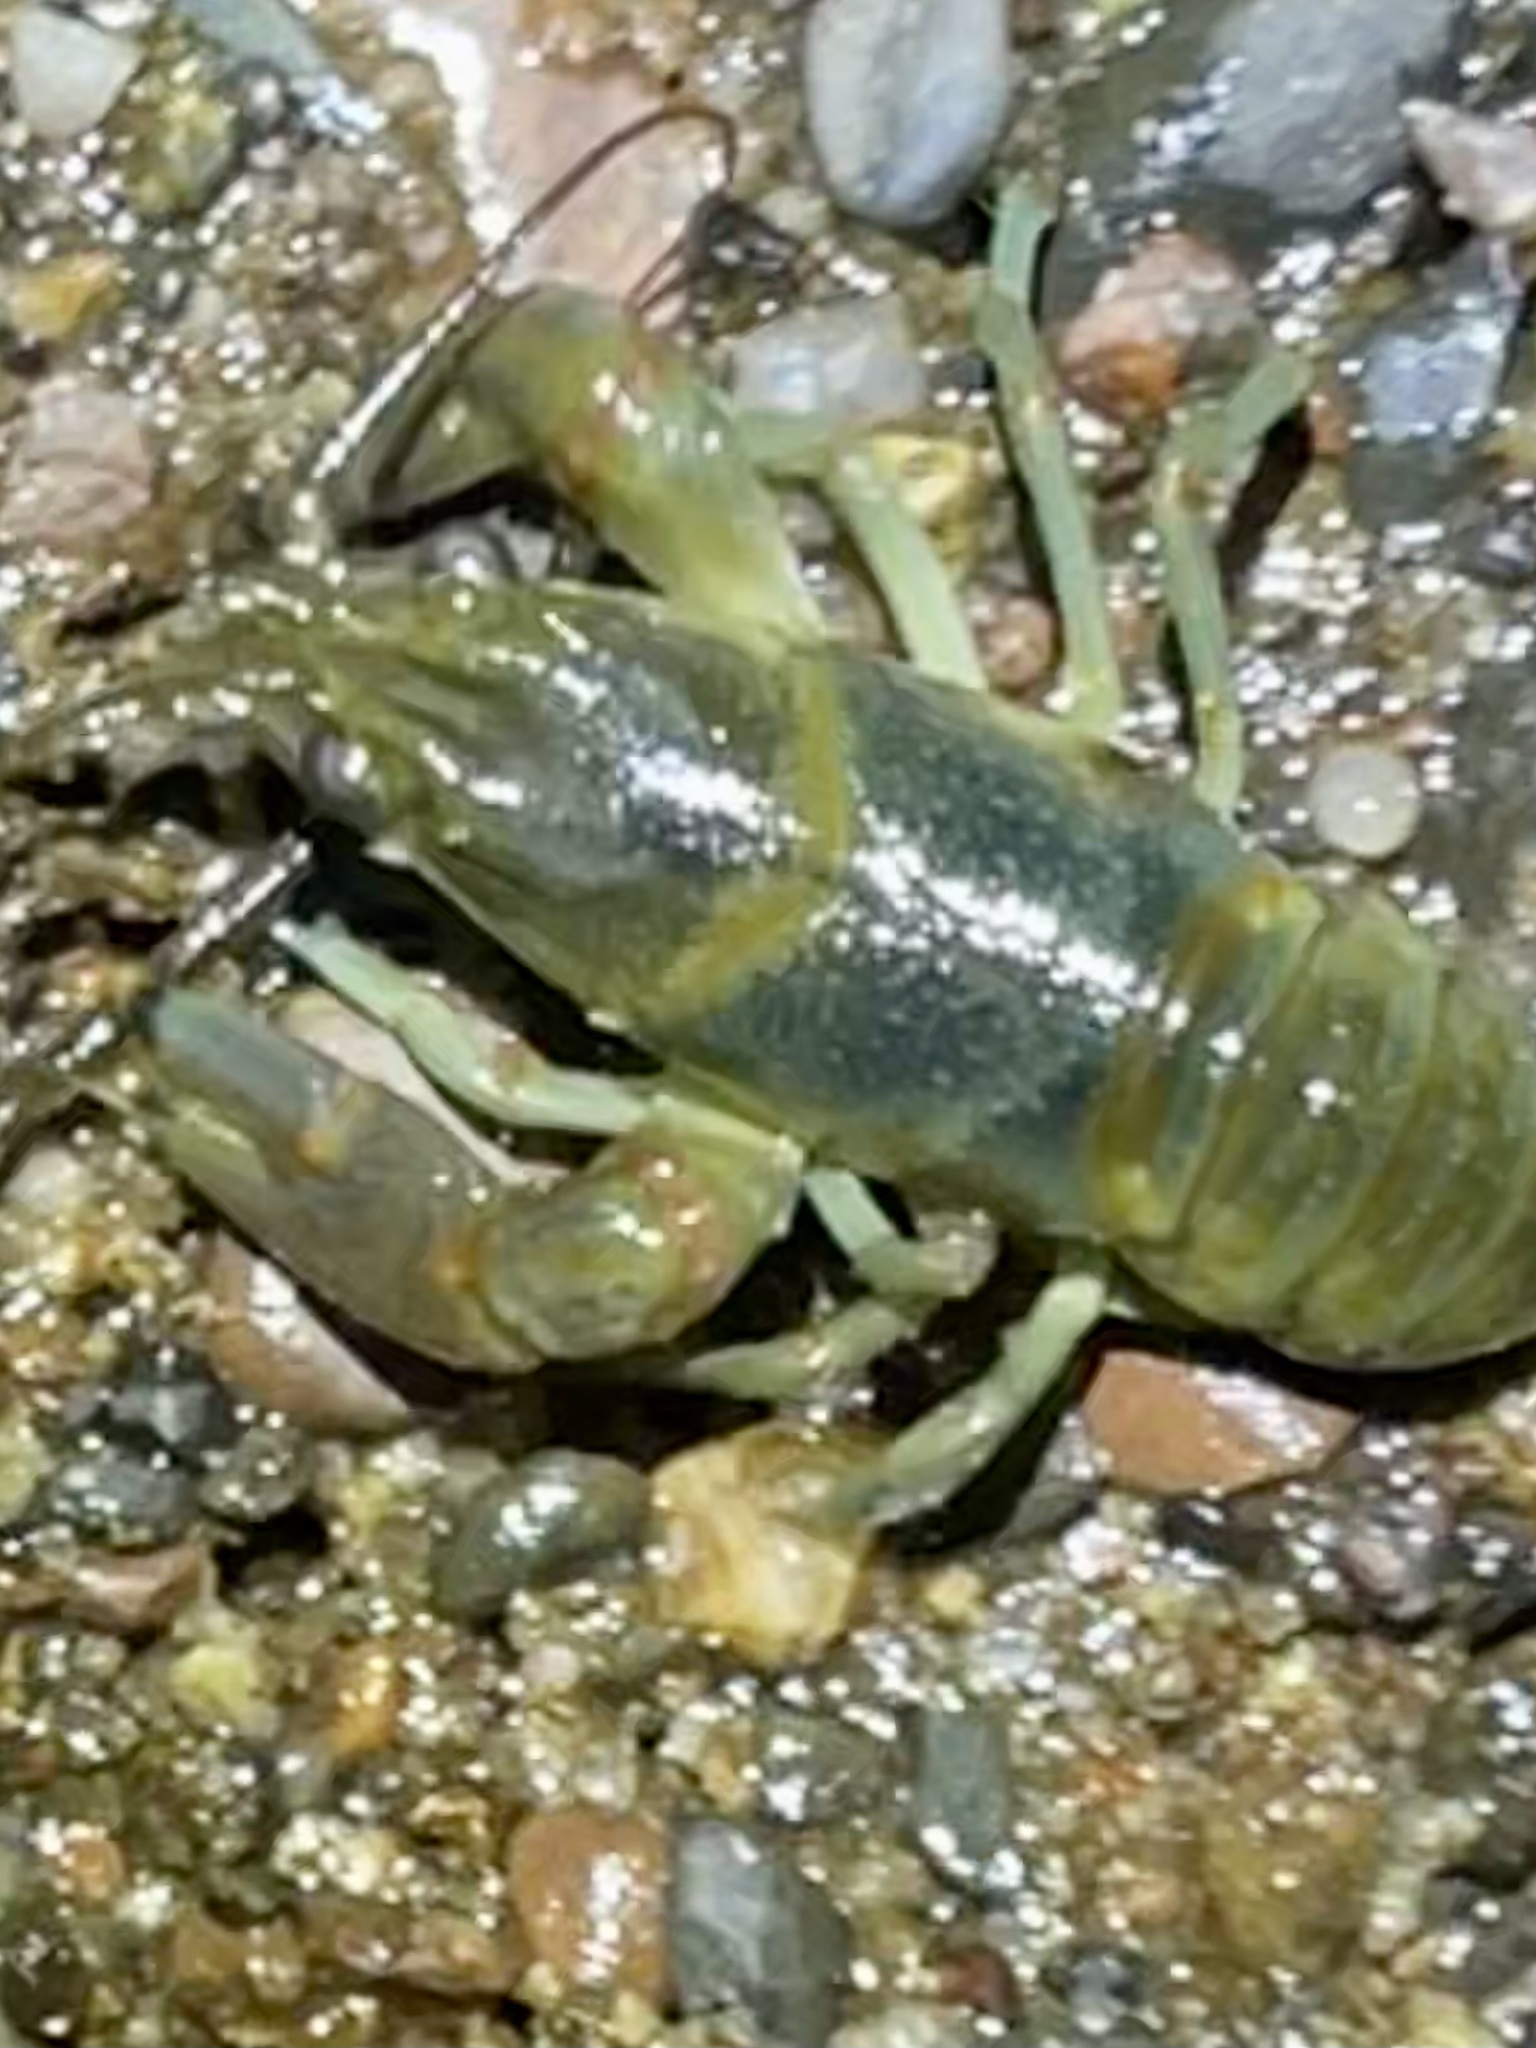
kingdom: Animalia
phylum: Arthropoda
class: Malacostraca
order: Decapoda
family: Cambaridae
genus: Faxonius
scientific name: Faxonius rusticus
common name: Rusty crayfish
